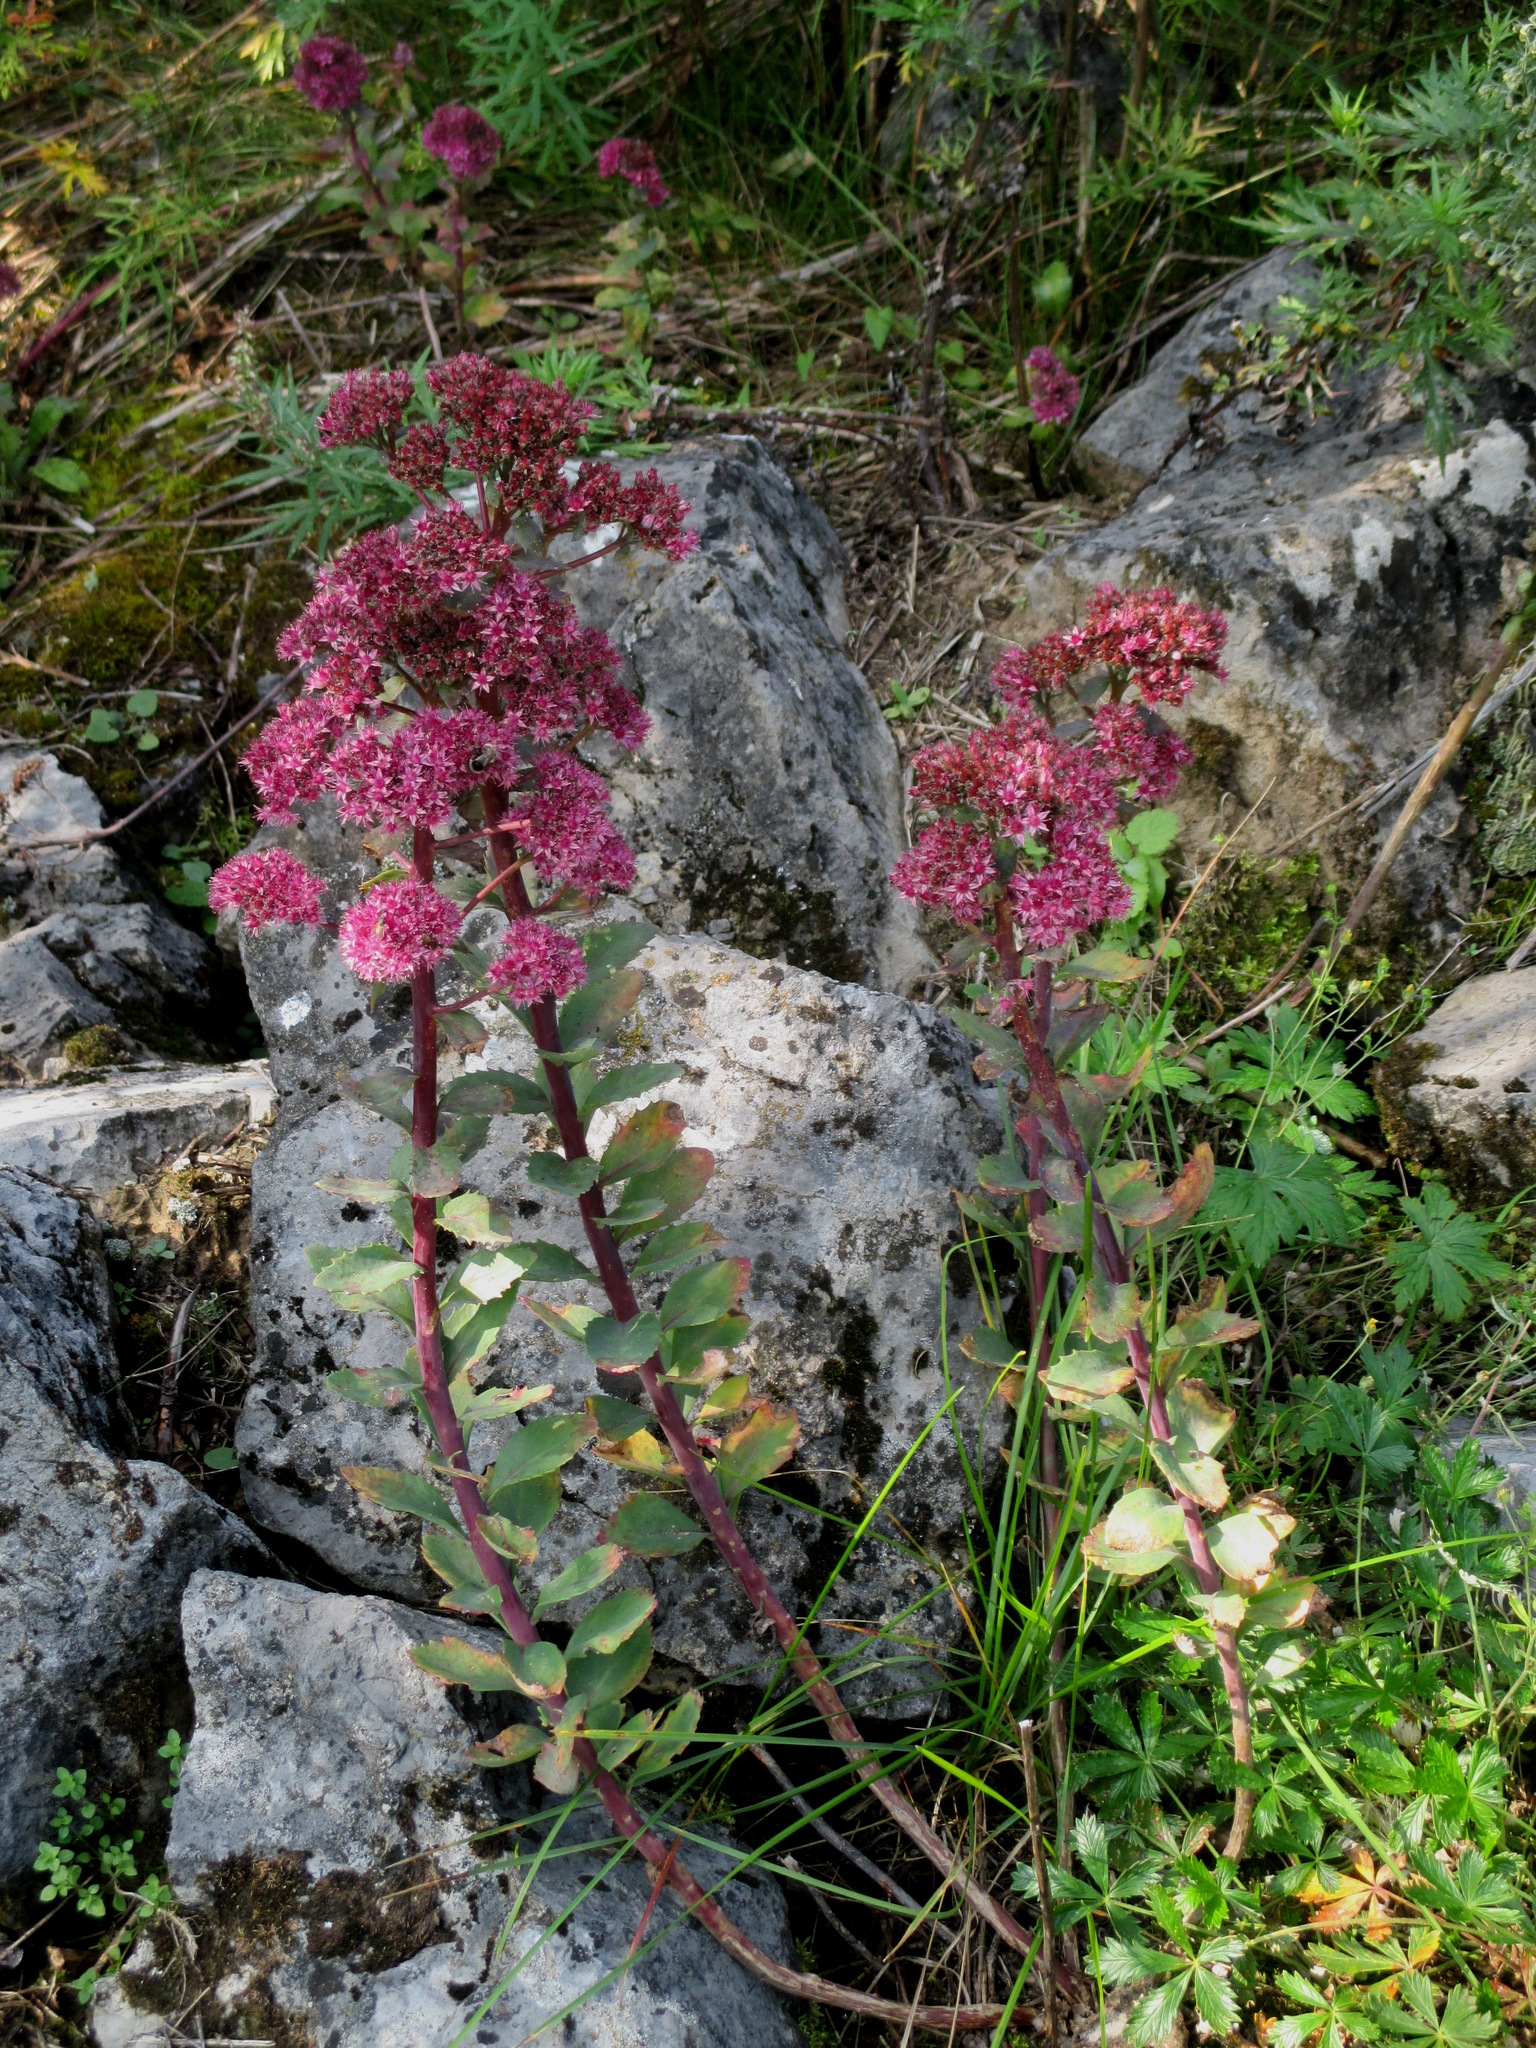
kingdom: Plantae
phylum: Tracheophyta
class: Magnoliopsida
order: Saxifragales
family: Crassulaceae
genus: Hylotelephium
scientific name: Hylotelephium telephium
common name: Live-forever
